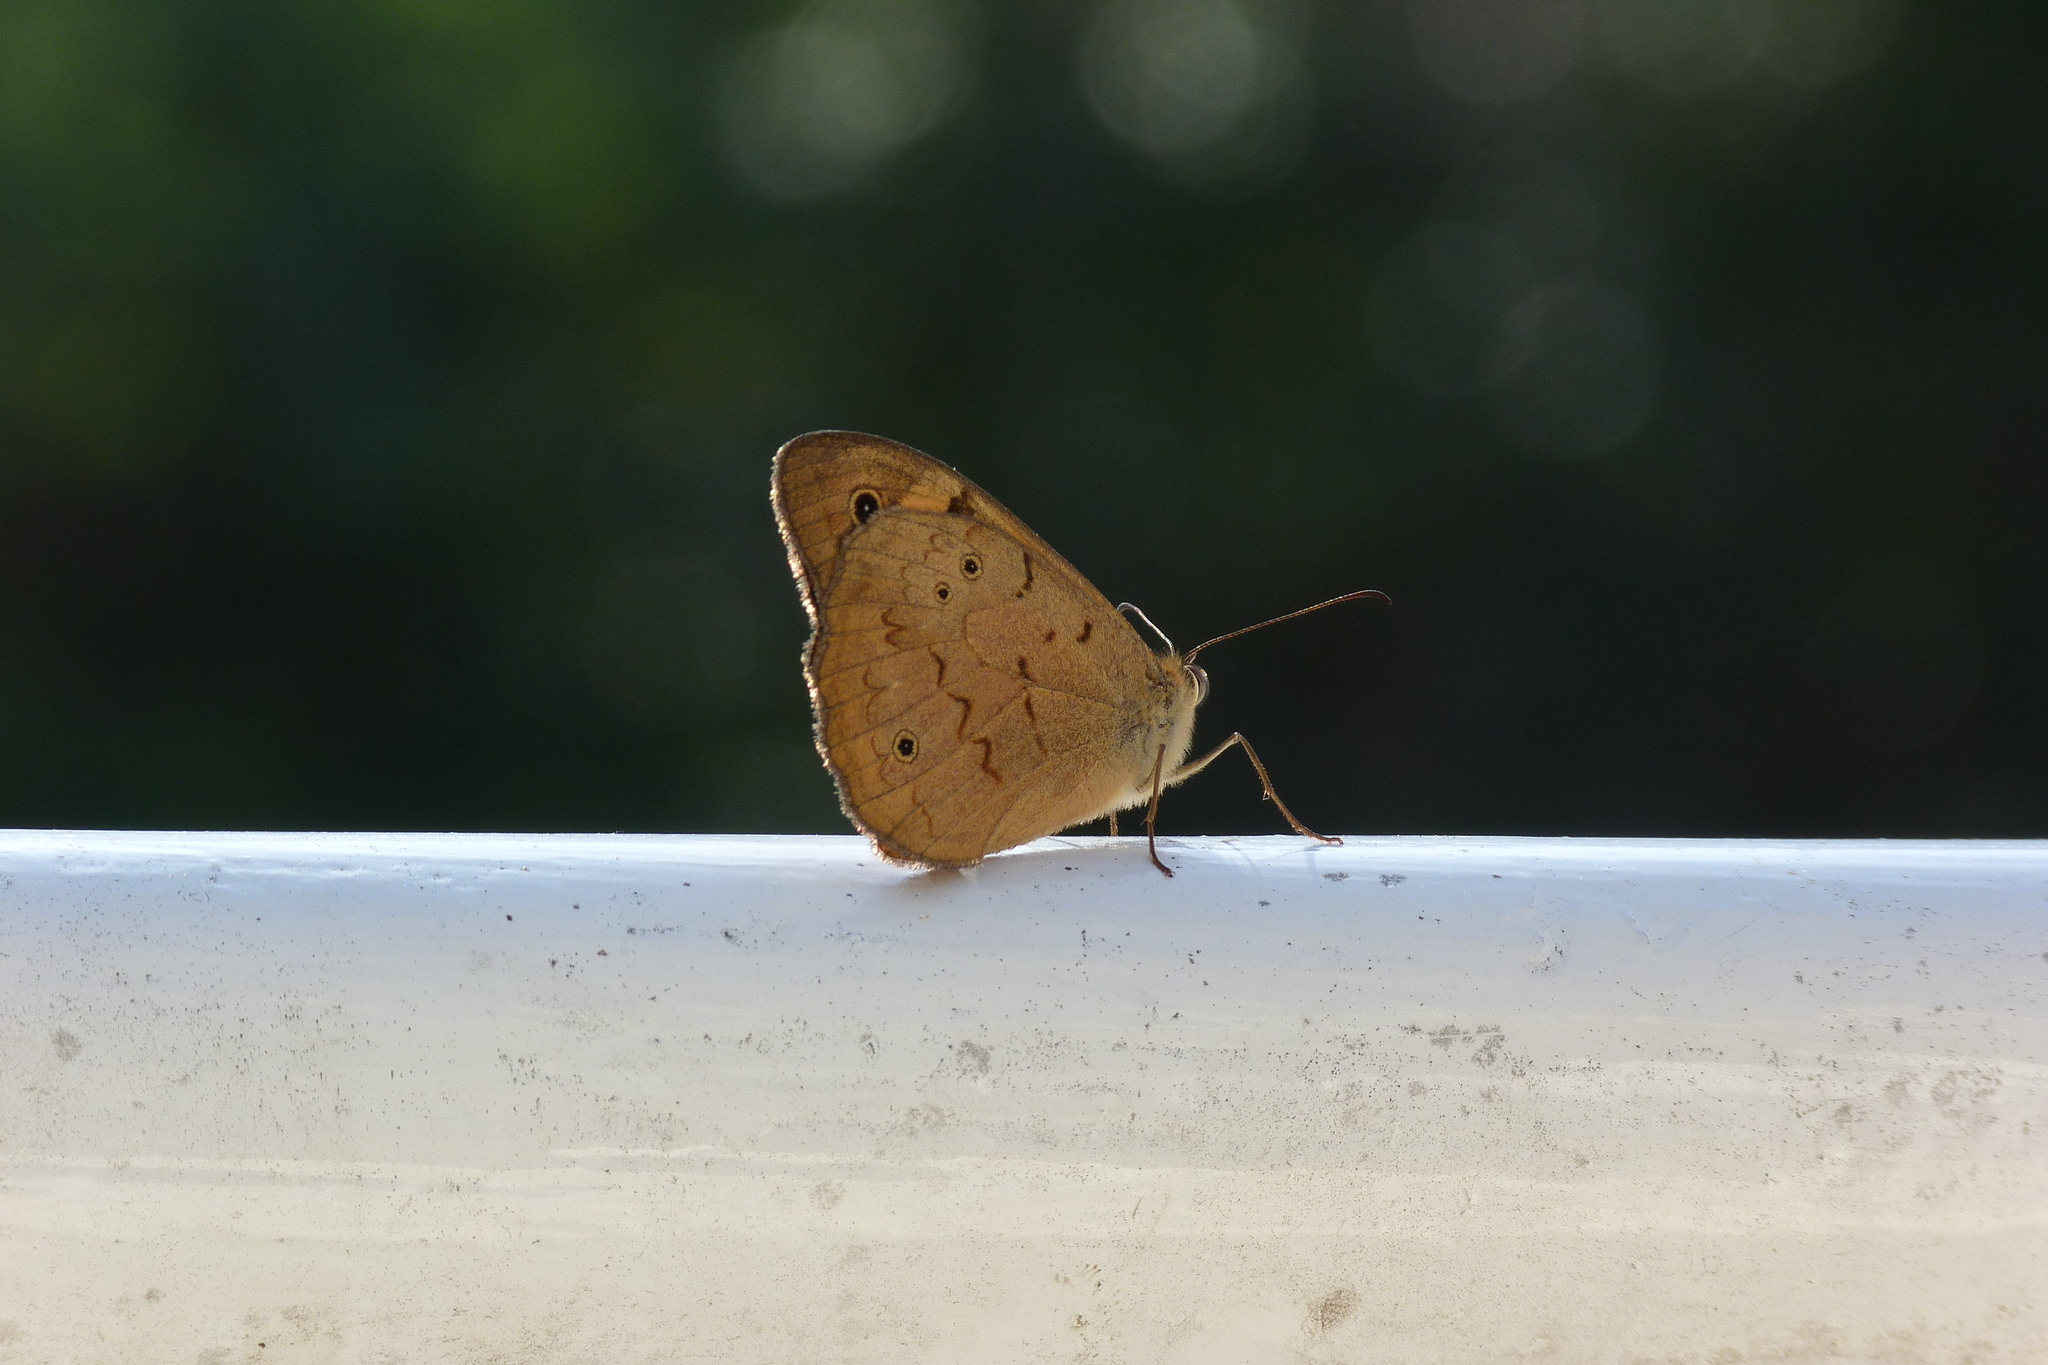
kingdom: Animalia
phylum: Arthropoda
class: Insecta
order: Lepidoptera
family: Nymphalidae
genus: Heteronympha
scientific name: Heteronympha merope
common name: Common brown
